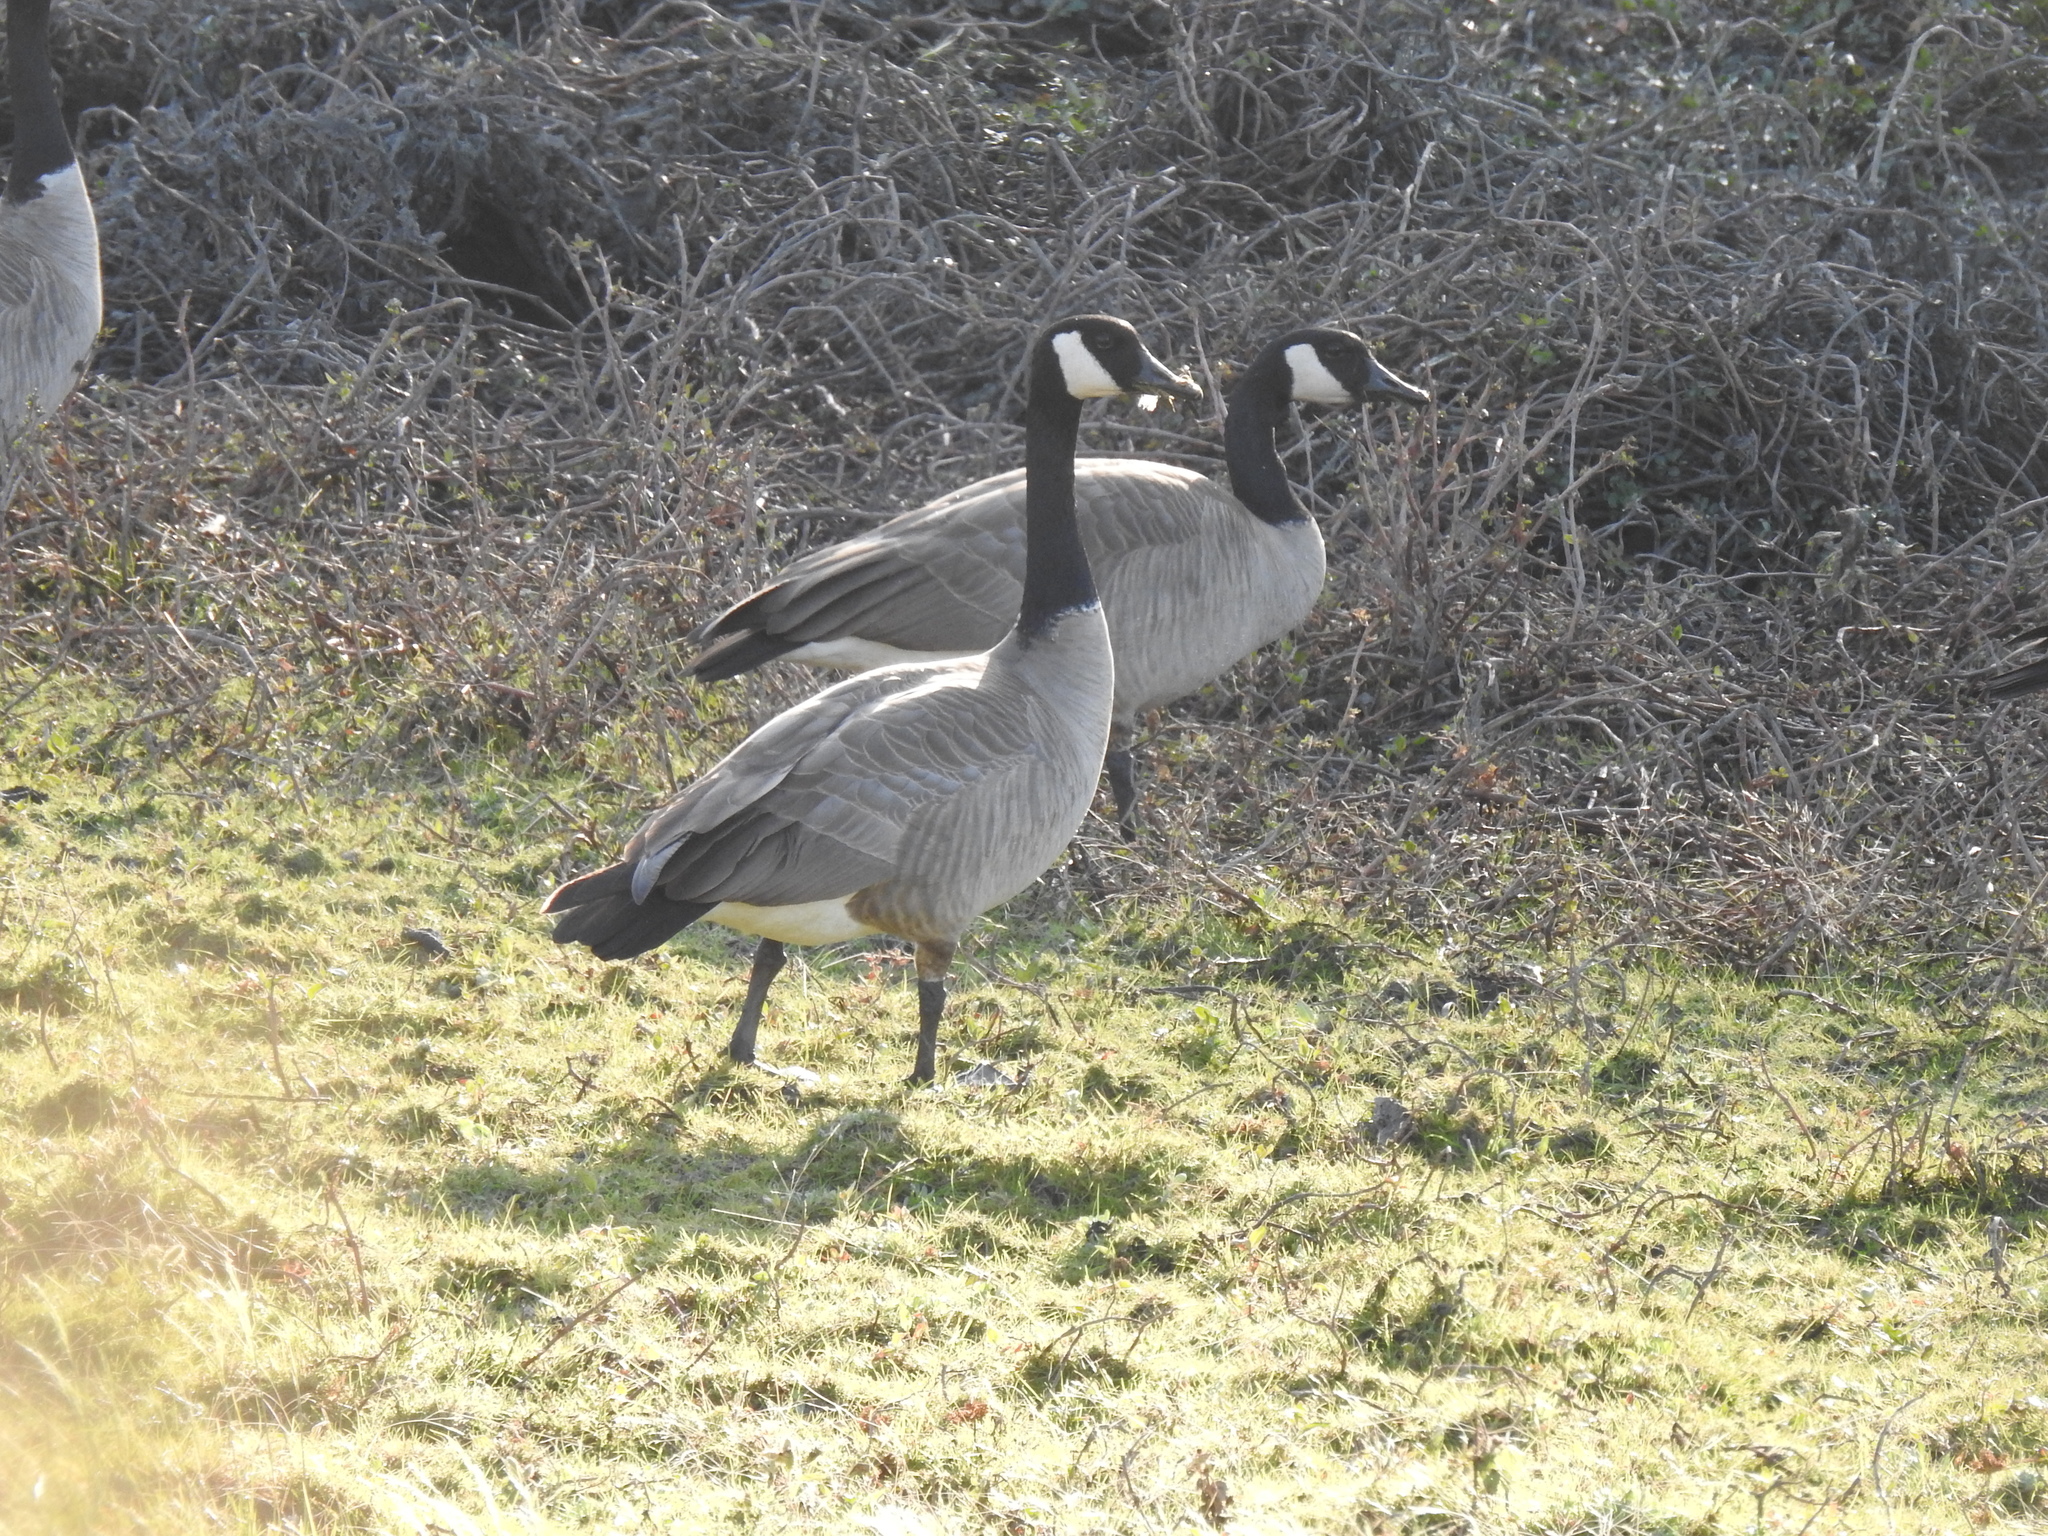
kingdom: Animalia
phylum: Chordata
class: Aves
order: Anseriformes
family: Anatidae
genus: Branta
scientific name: Branta canadensis
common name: Canada goose
